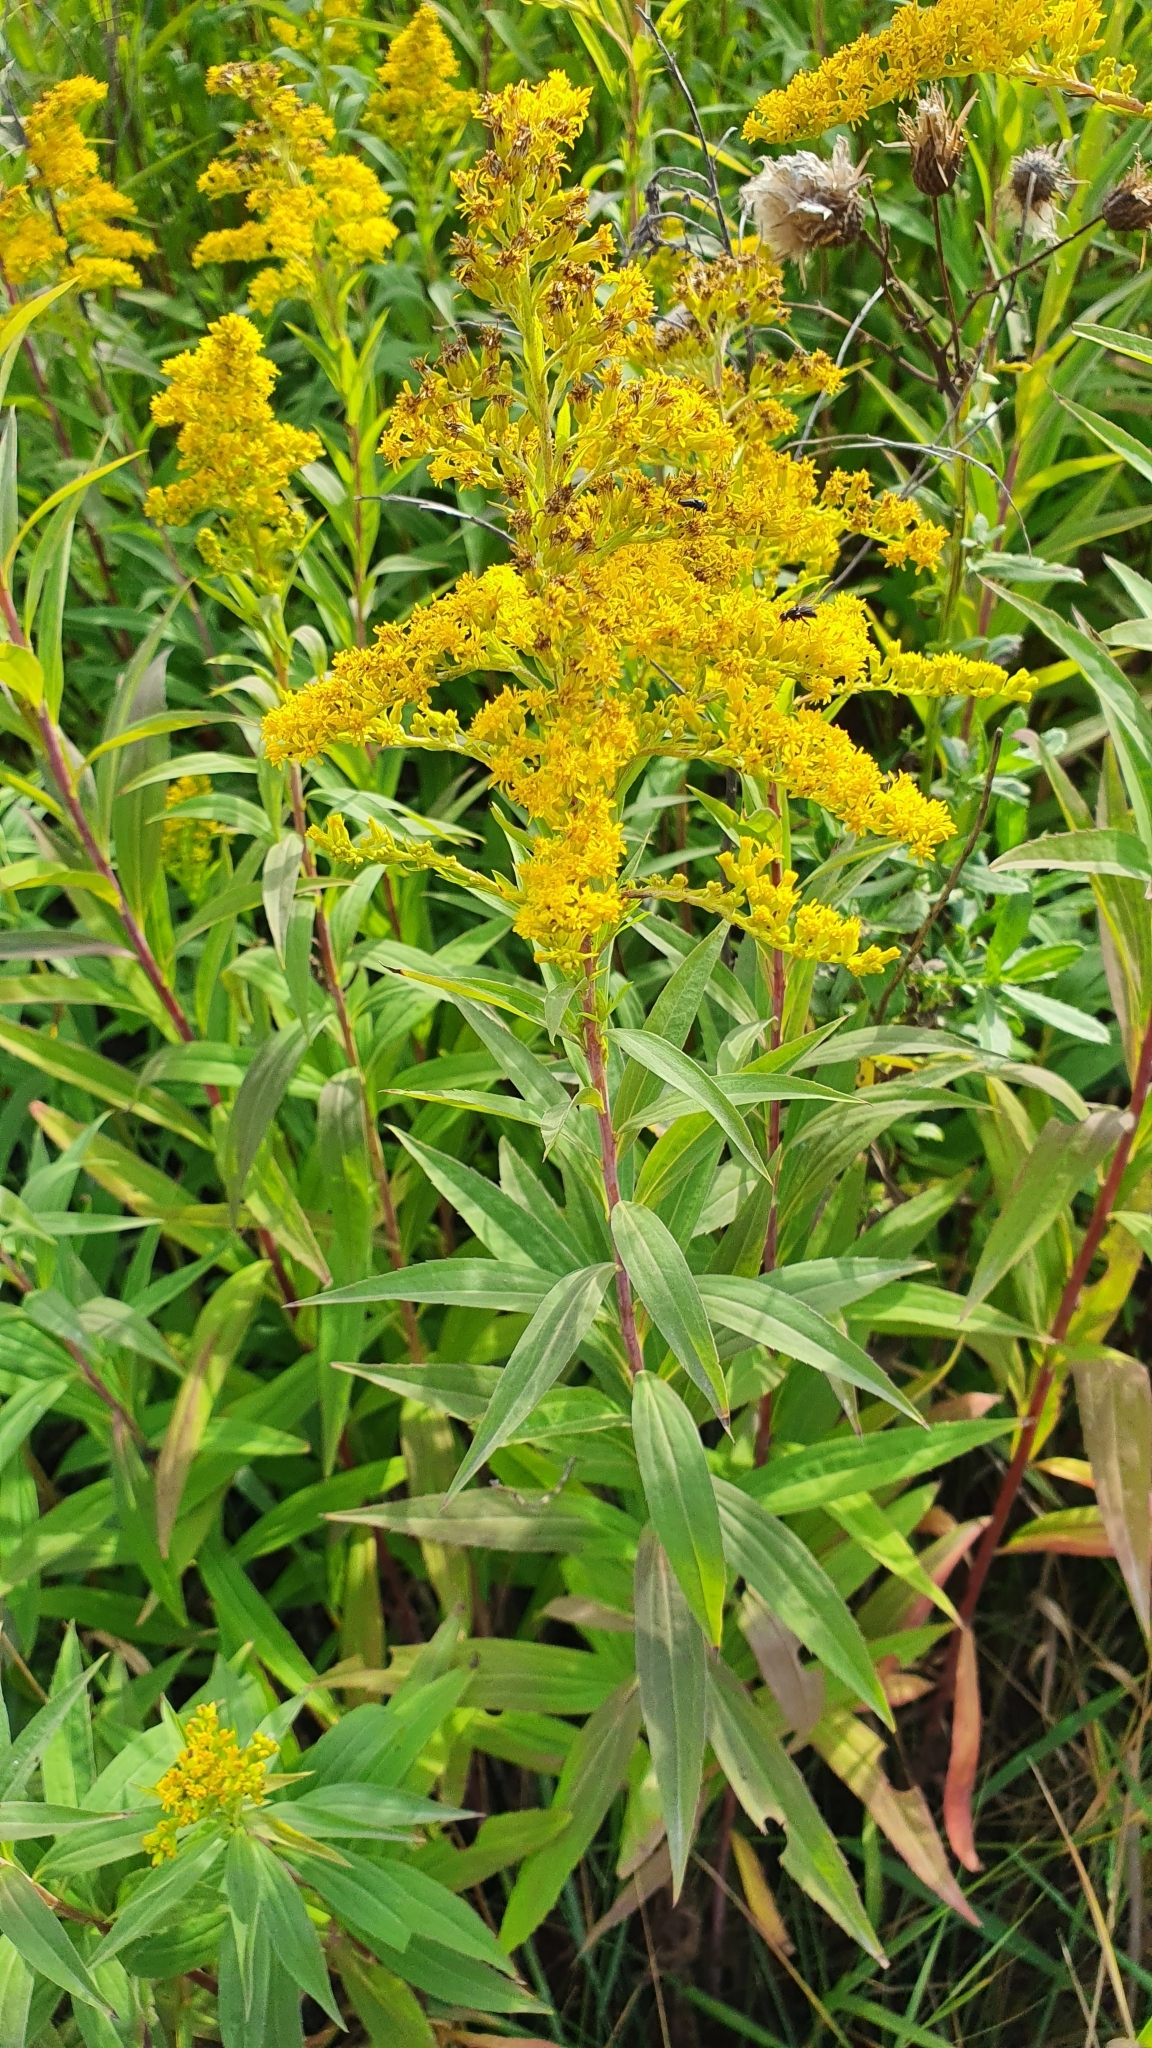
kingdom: Plantae
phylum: Tracheophyta
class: Magnoliopsida
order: Asterales
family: Asteraceae
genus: Solidago
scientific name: Solidago canadensis
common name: Canada goldenrod
